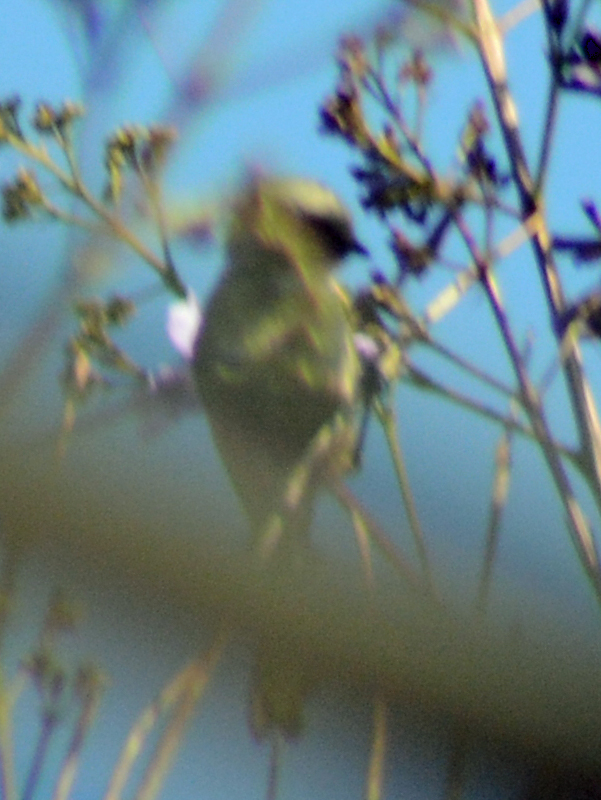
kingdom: Animalia
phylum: Chordata
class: Aves
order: Passeriformes
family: Aegithalidae
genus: Psaltriparus
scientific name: Psaltriparus minimus
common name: American bushtit
